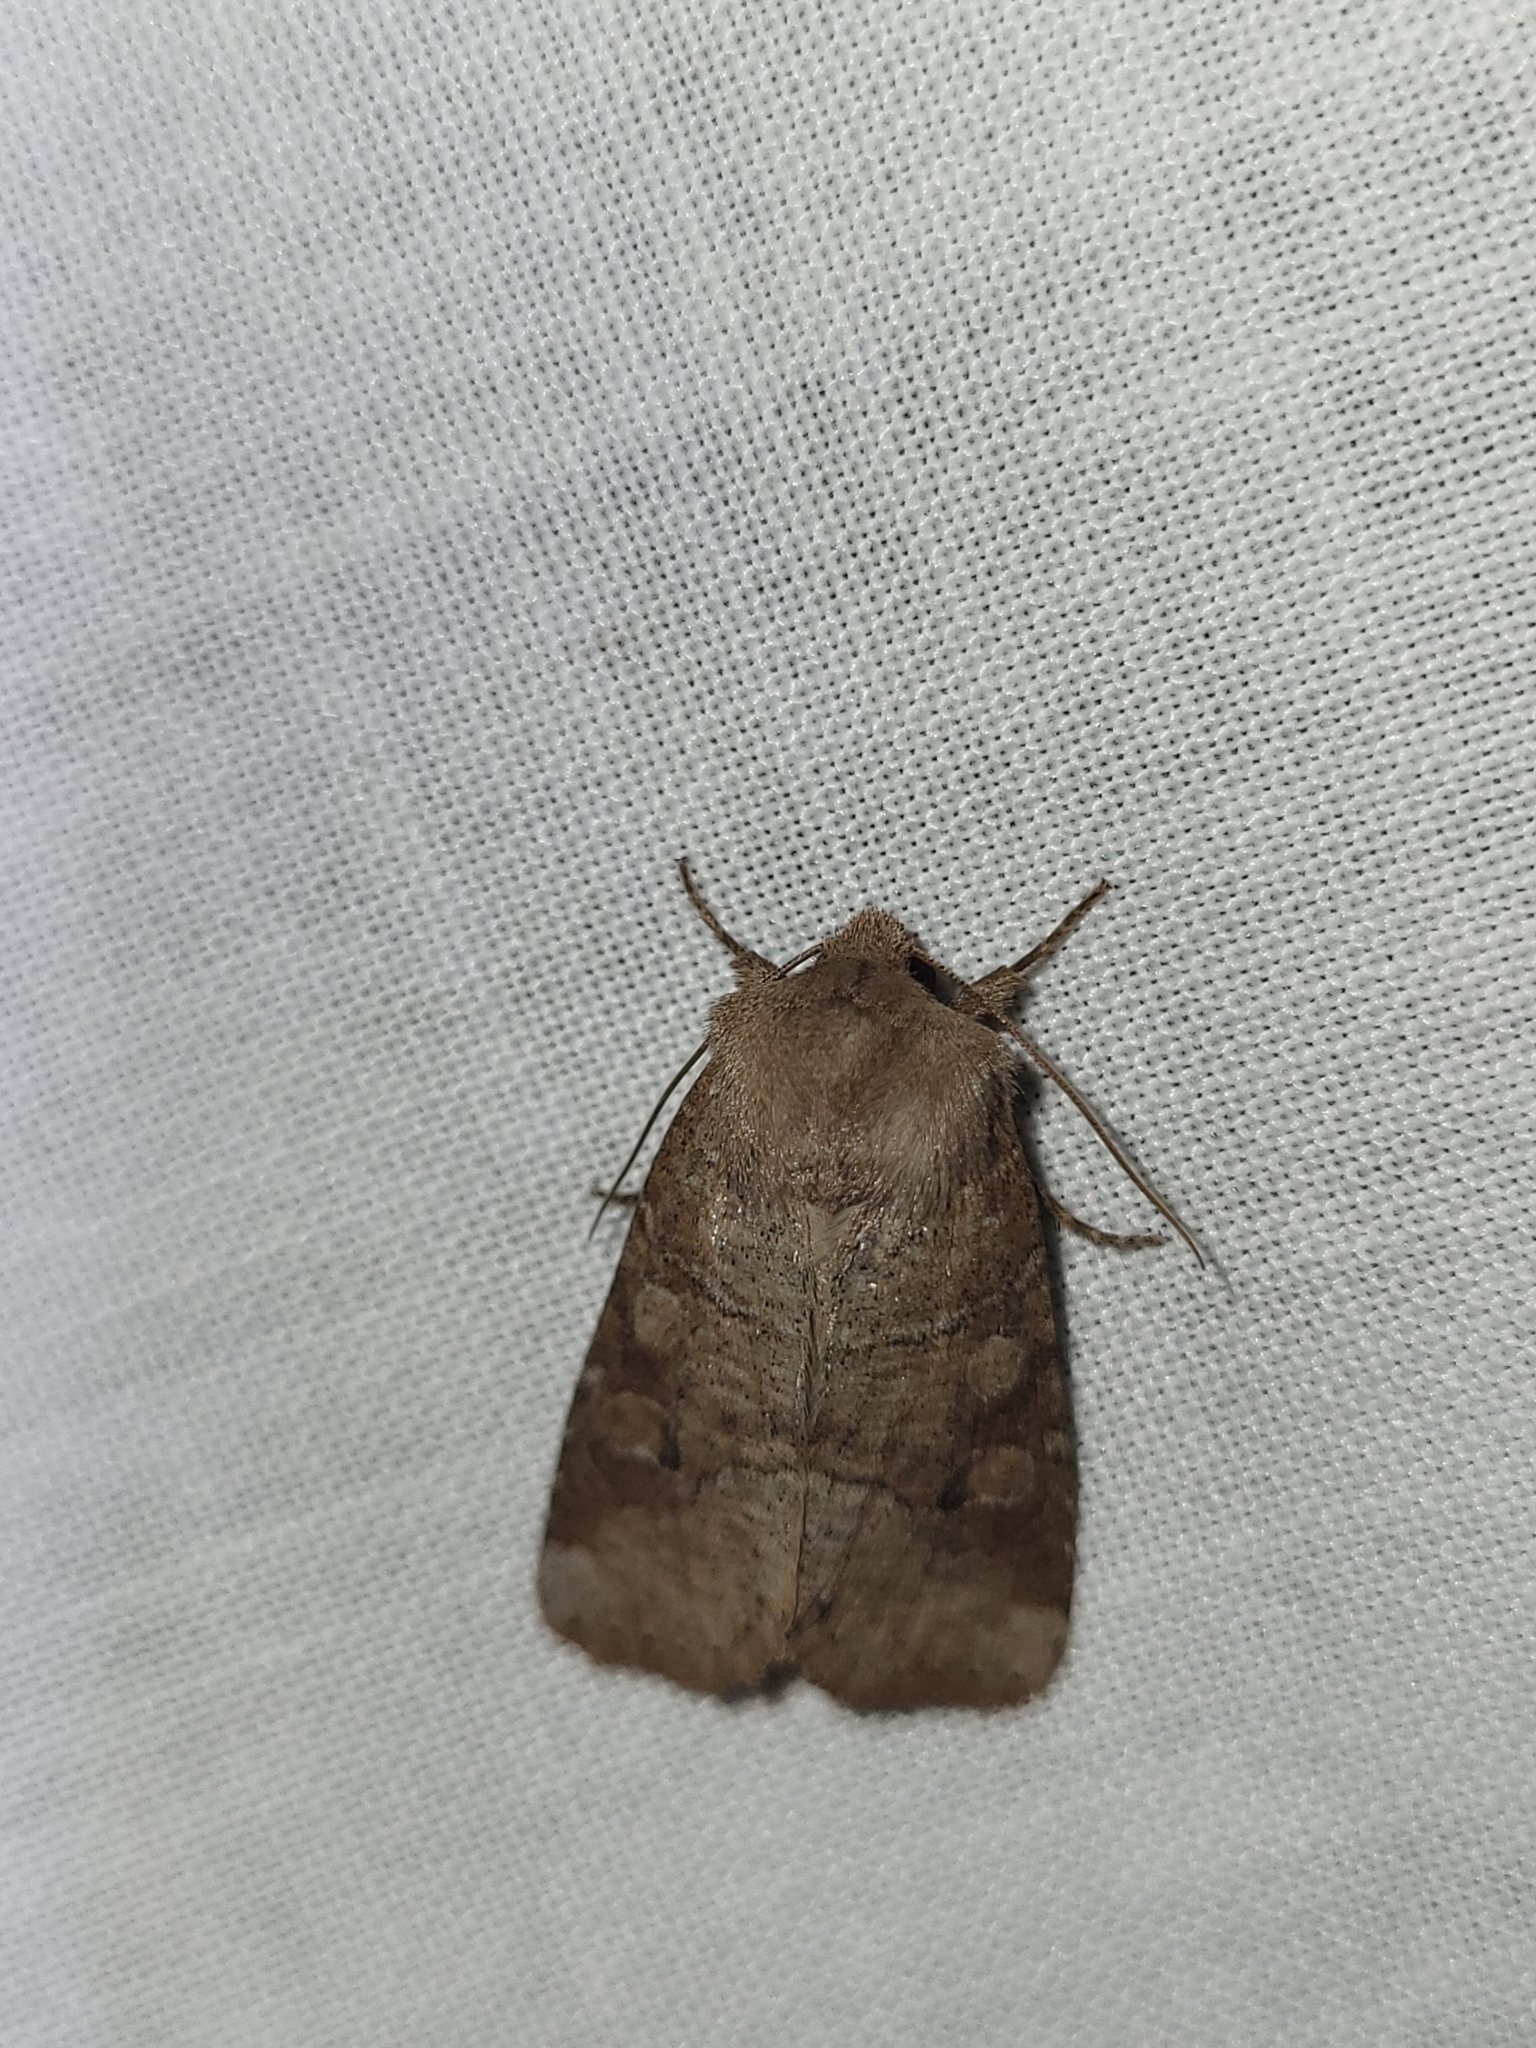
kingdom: Animalia
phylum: Arthropoda
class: Insecta
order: Lepidoptera
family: Noctuidae
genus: Crocigrapha
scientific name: Crocigrapha normani
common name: Norman's quaker
